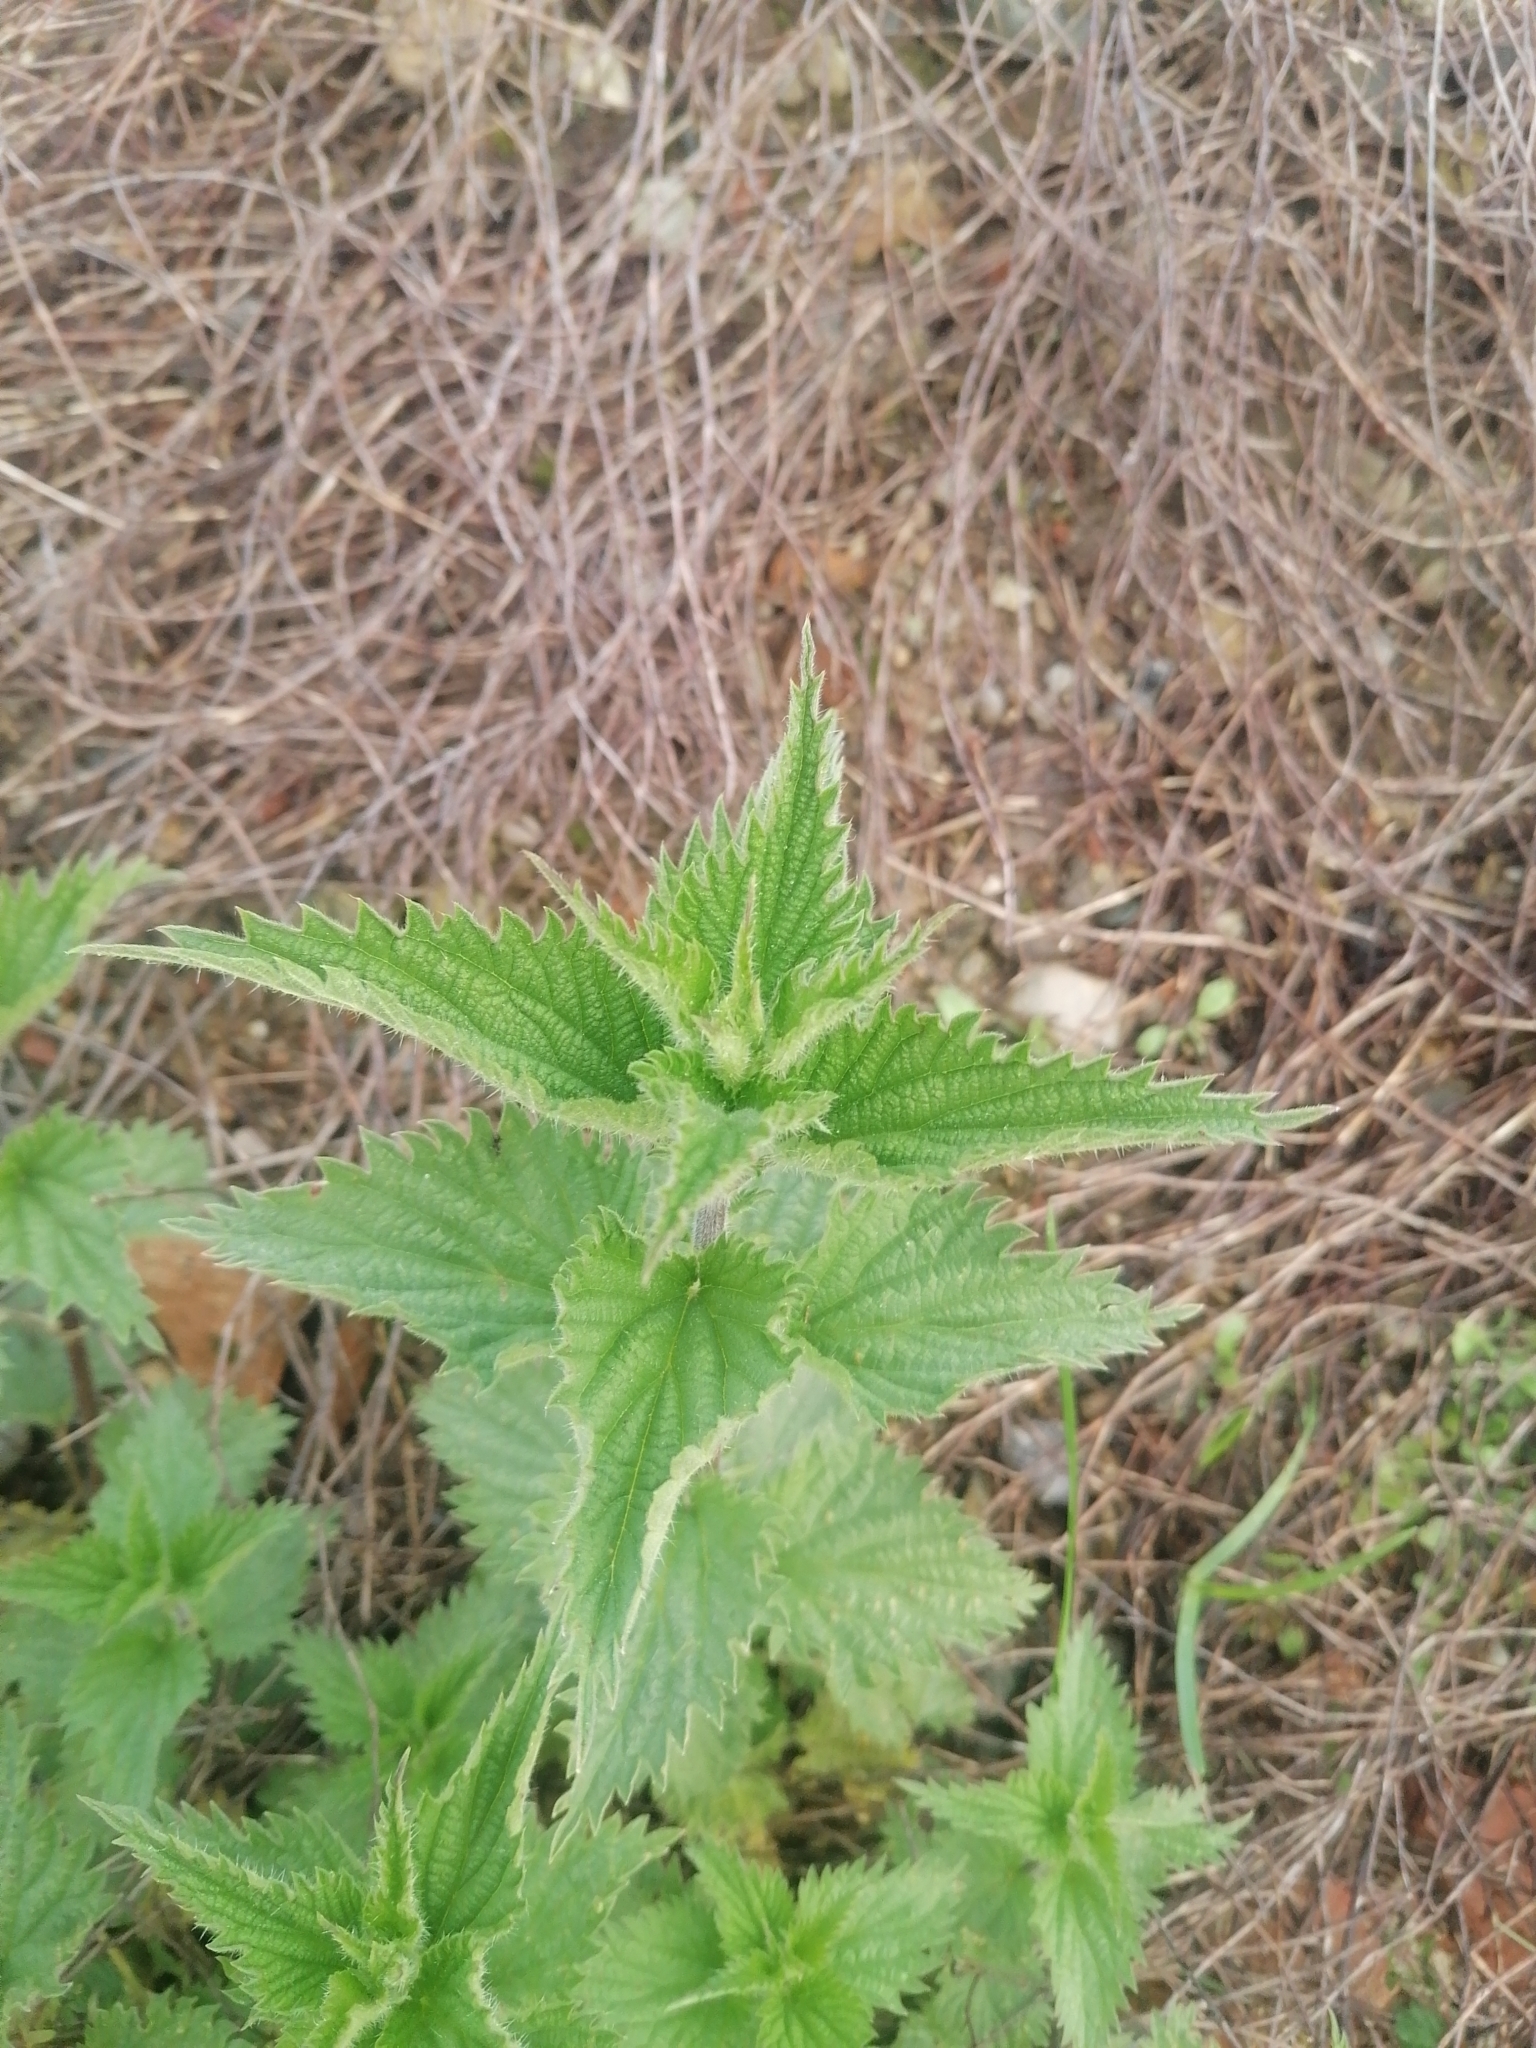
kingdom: Plantae
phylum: Tracheophyta
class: Magnoliopsida
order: Rosales
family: Urticaceae
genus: Urtica
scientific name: Urtica dioica
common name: Common nettle
